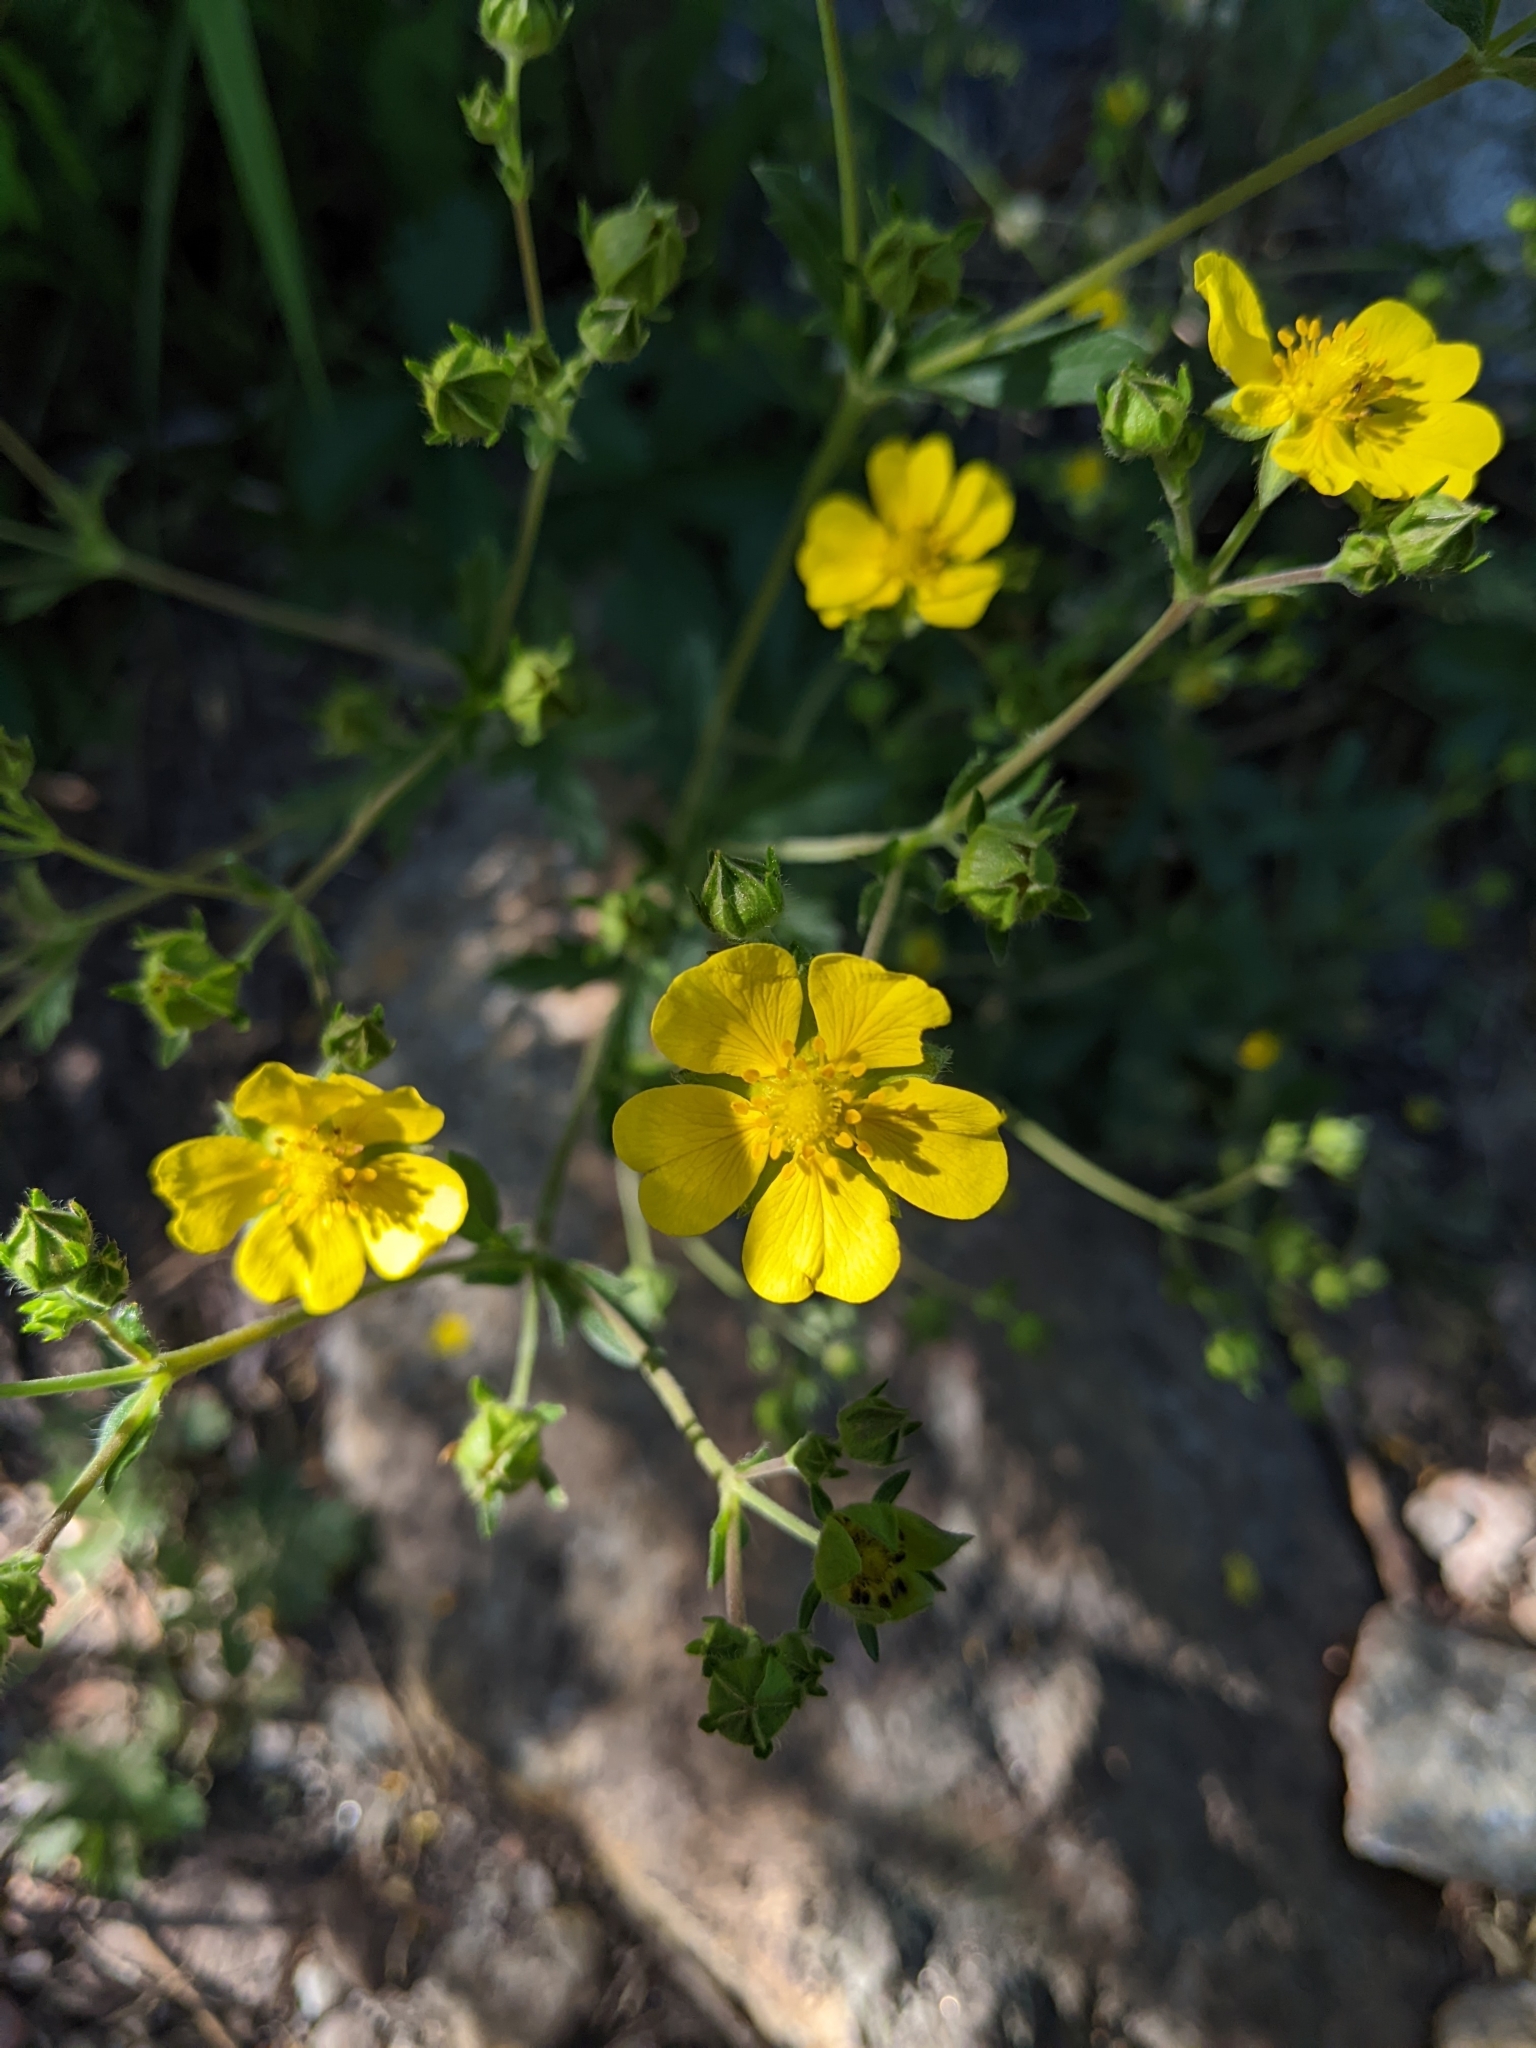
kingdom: Plantae
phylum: Tracheophyta
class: Magnoliopsida
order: Rosales
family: Rosaceae
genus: Potentilla
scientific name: Potentilla gracilis
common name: Graceful cinquefoil
